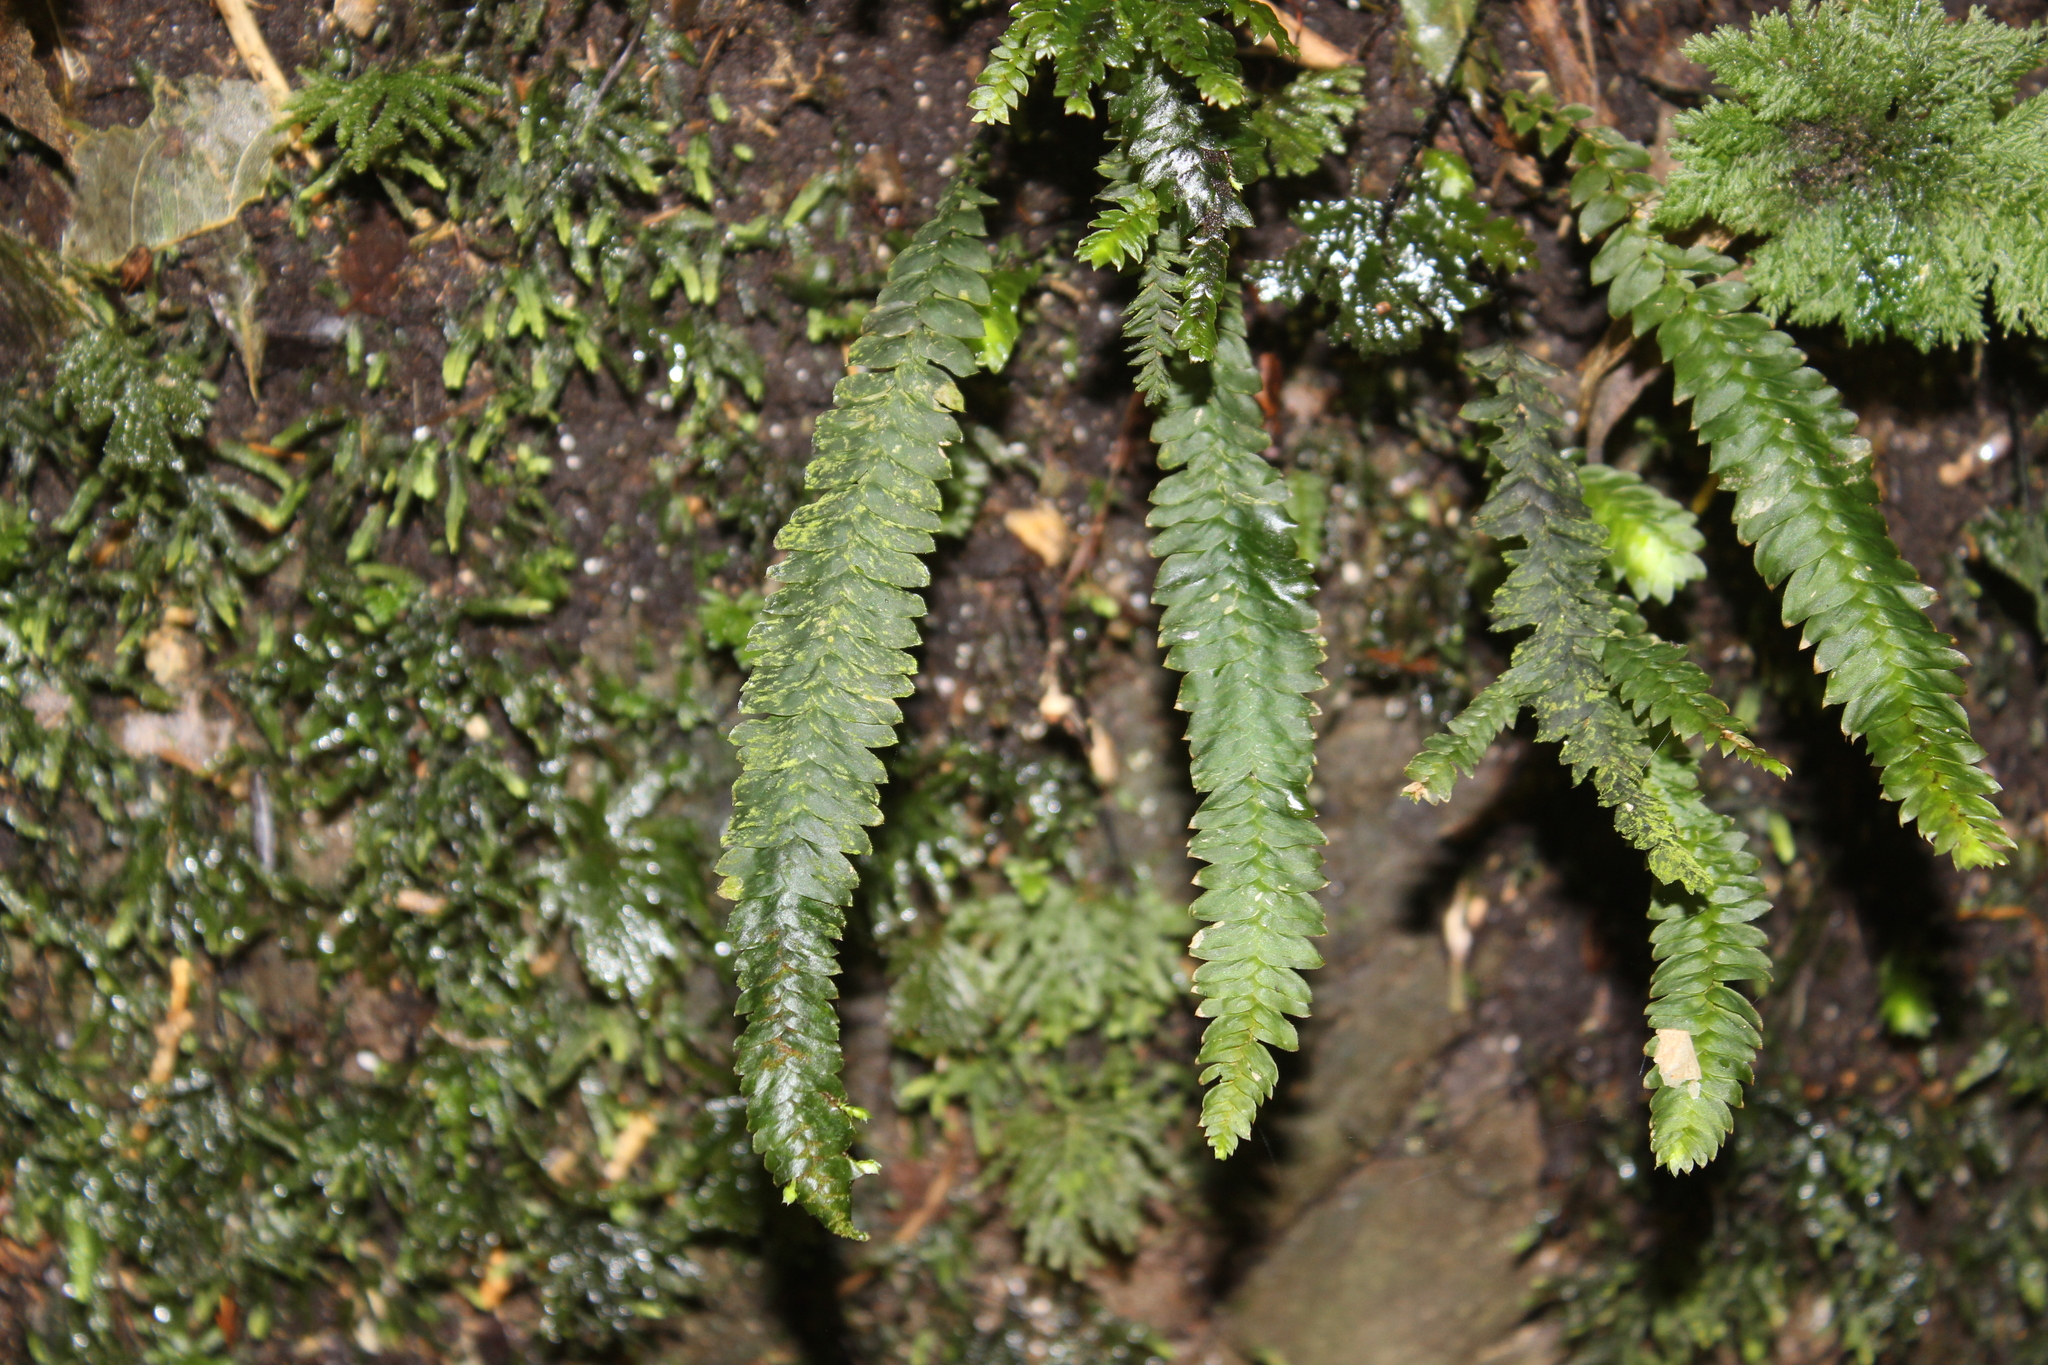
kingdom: Plantae
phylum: Bryophyta
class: Bryopsida
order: Hypopterygiales
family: Hypopterygiaceae
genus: Cyathophorum
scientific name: Cyathophorum bulbosum
